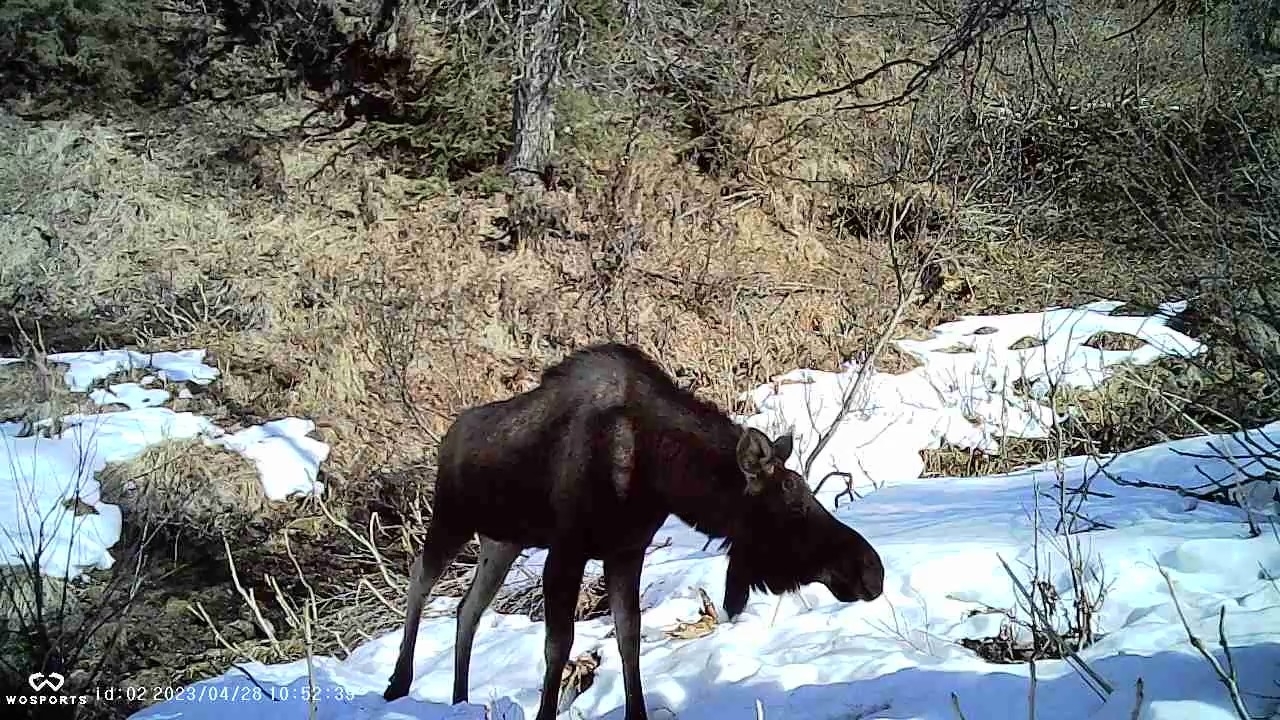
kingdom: Animalia
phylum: Chordata
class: Mammalia
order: Artiodactyla
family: Cervidae
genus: Alces
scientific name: Alces alces
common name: Moose
